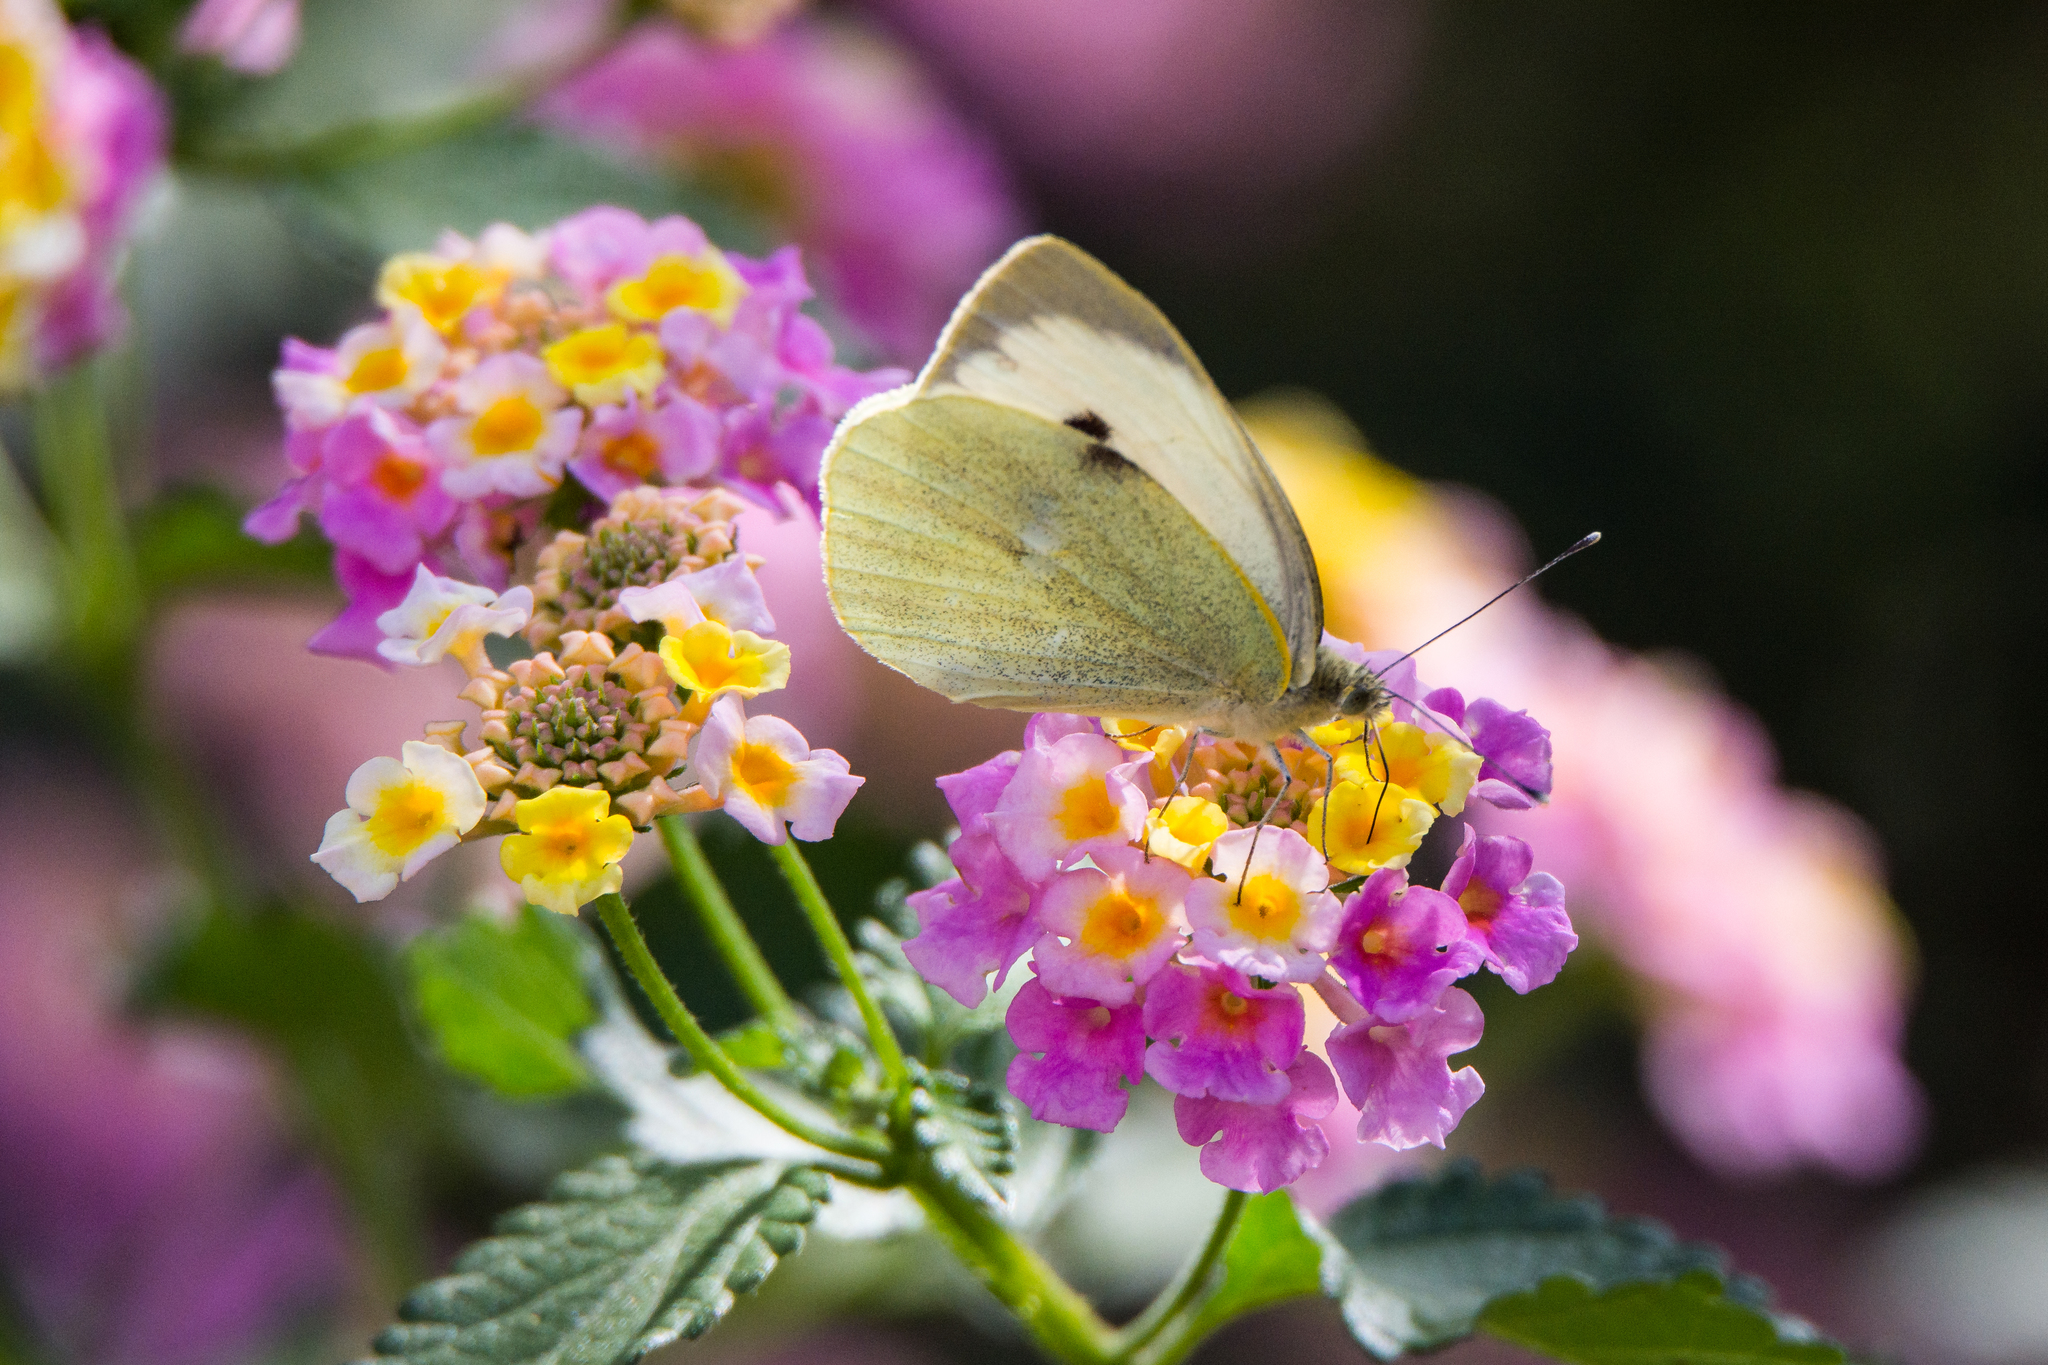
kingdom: Animalia
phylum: Arthropoda
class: Insecta
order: Lepidoptera
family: Pieridae
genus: Pieris
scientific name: Pieris brassicae
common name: Large white
